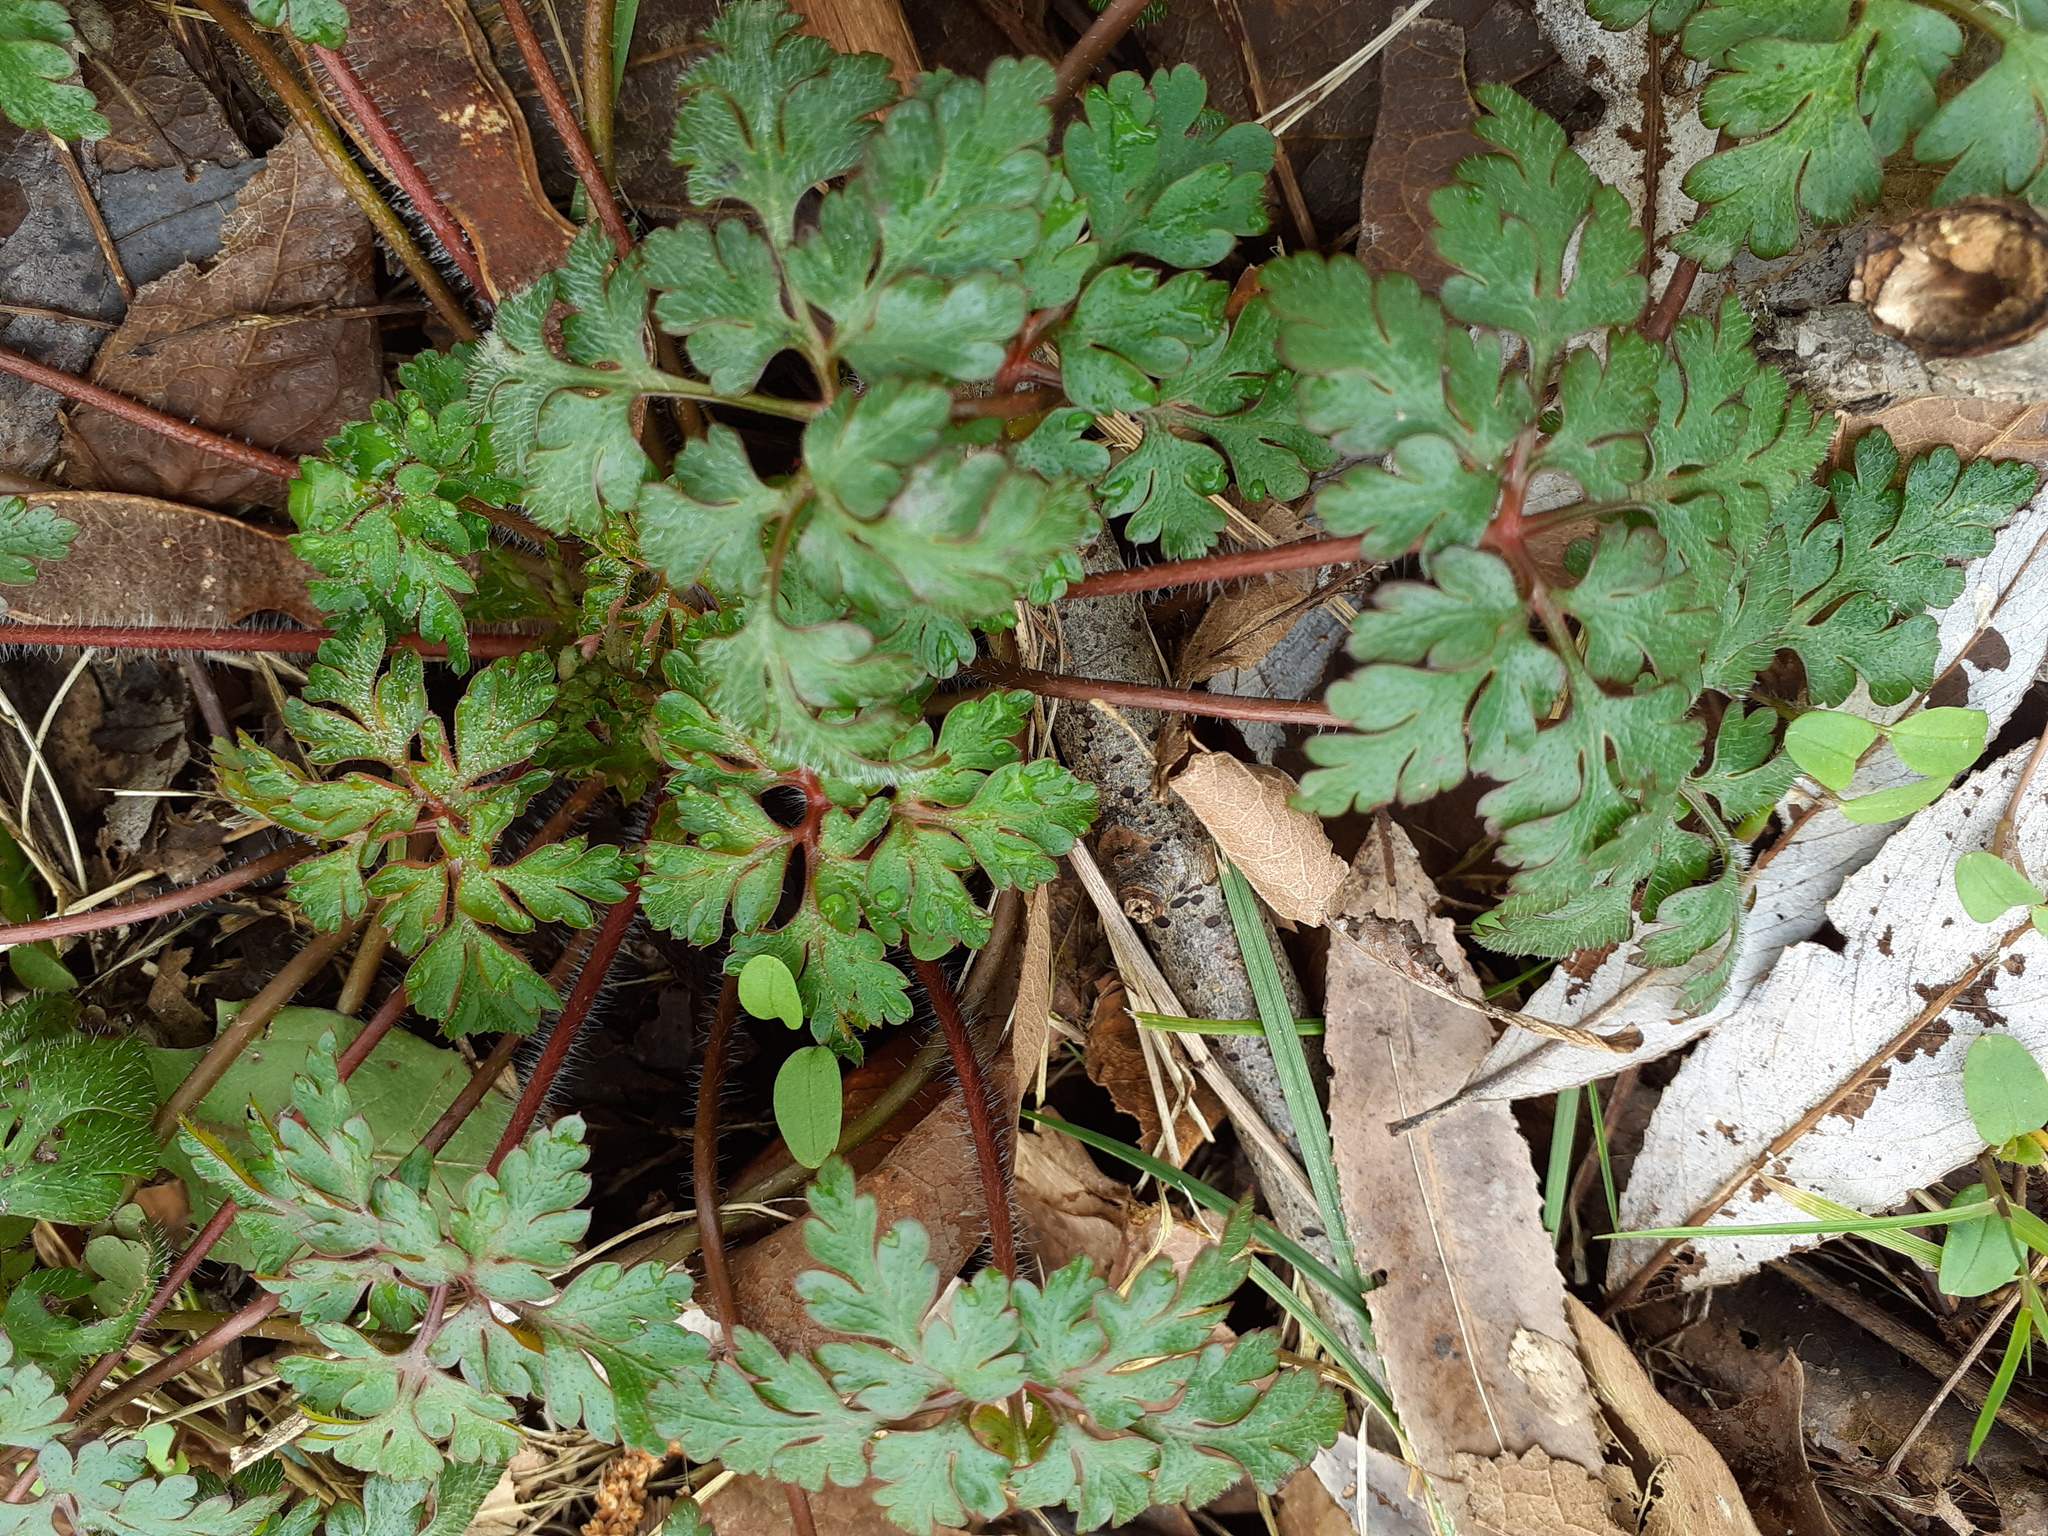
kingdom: Plantae
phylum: Tracheophyta
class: Magnoliopsida
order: Geraniales
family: Geraniaceae
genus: Geranium
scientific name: Geranium robertianum
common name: Herb-robert
